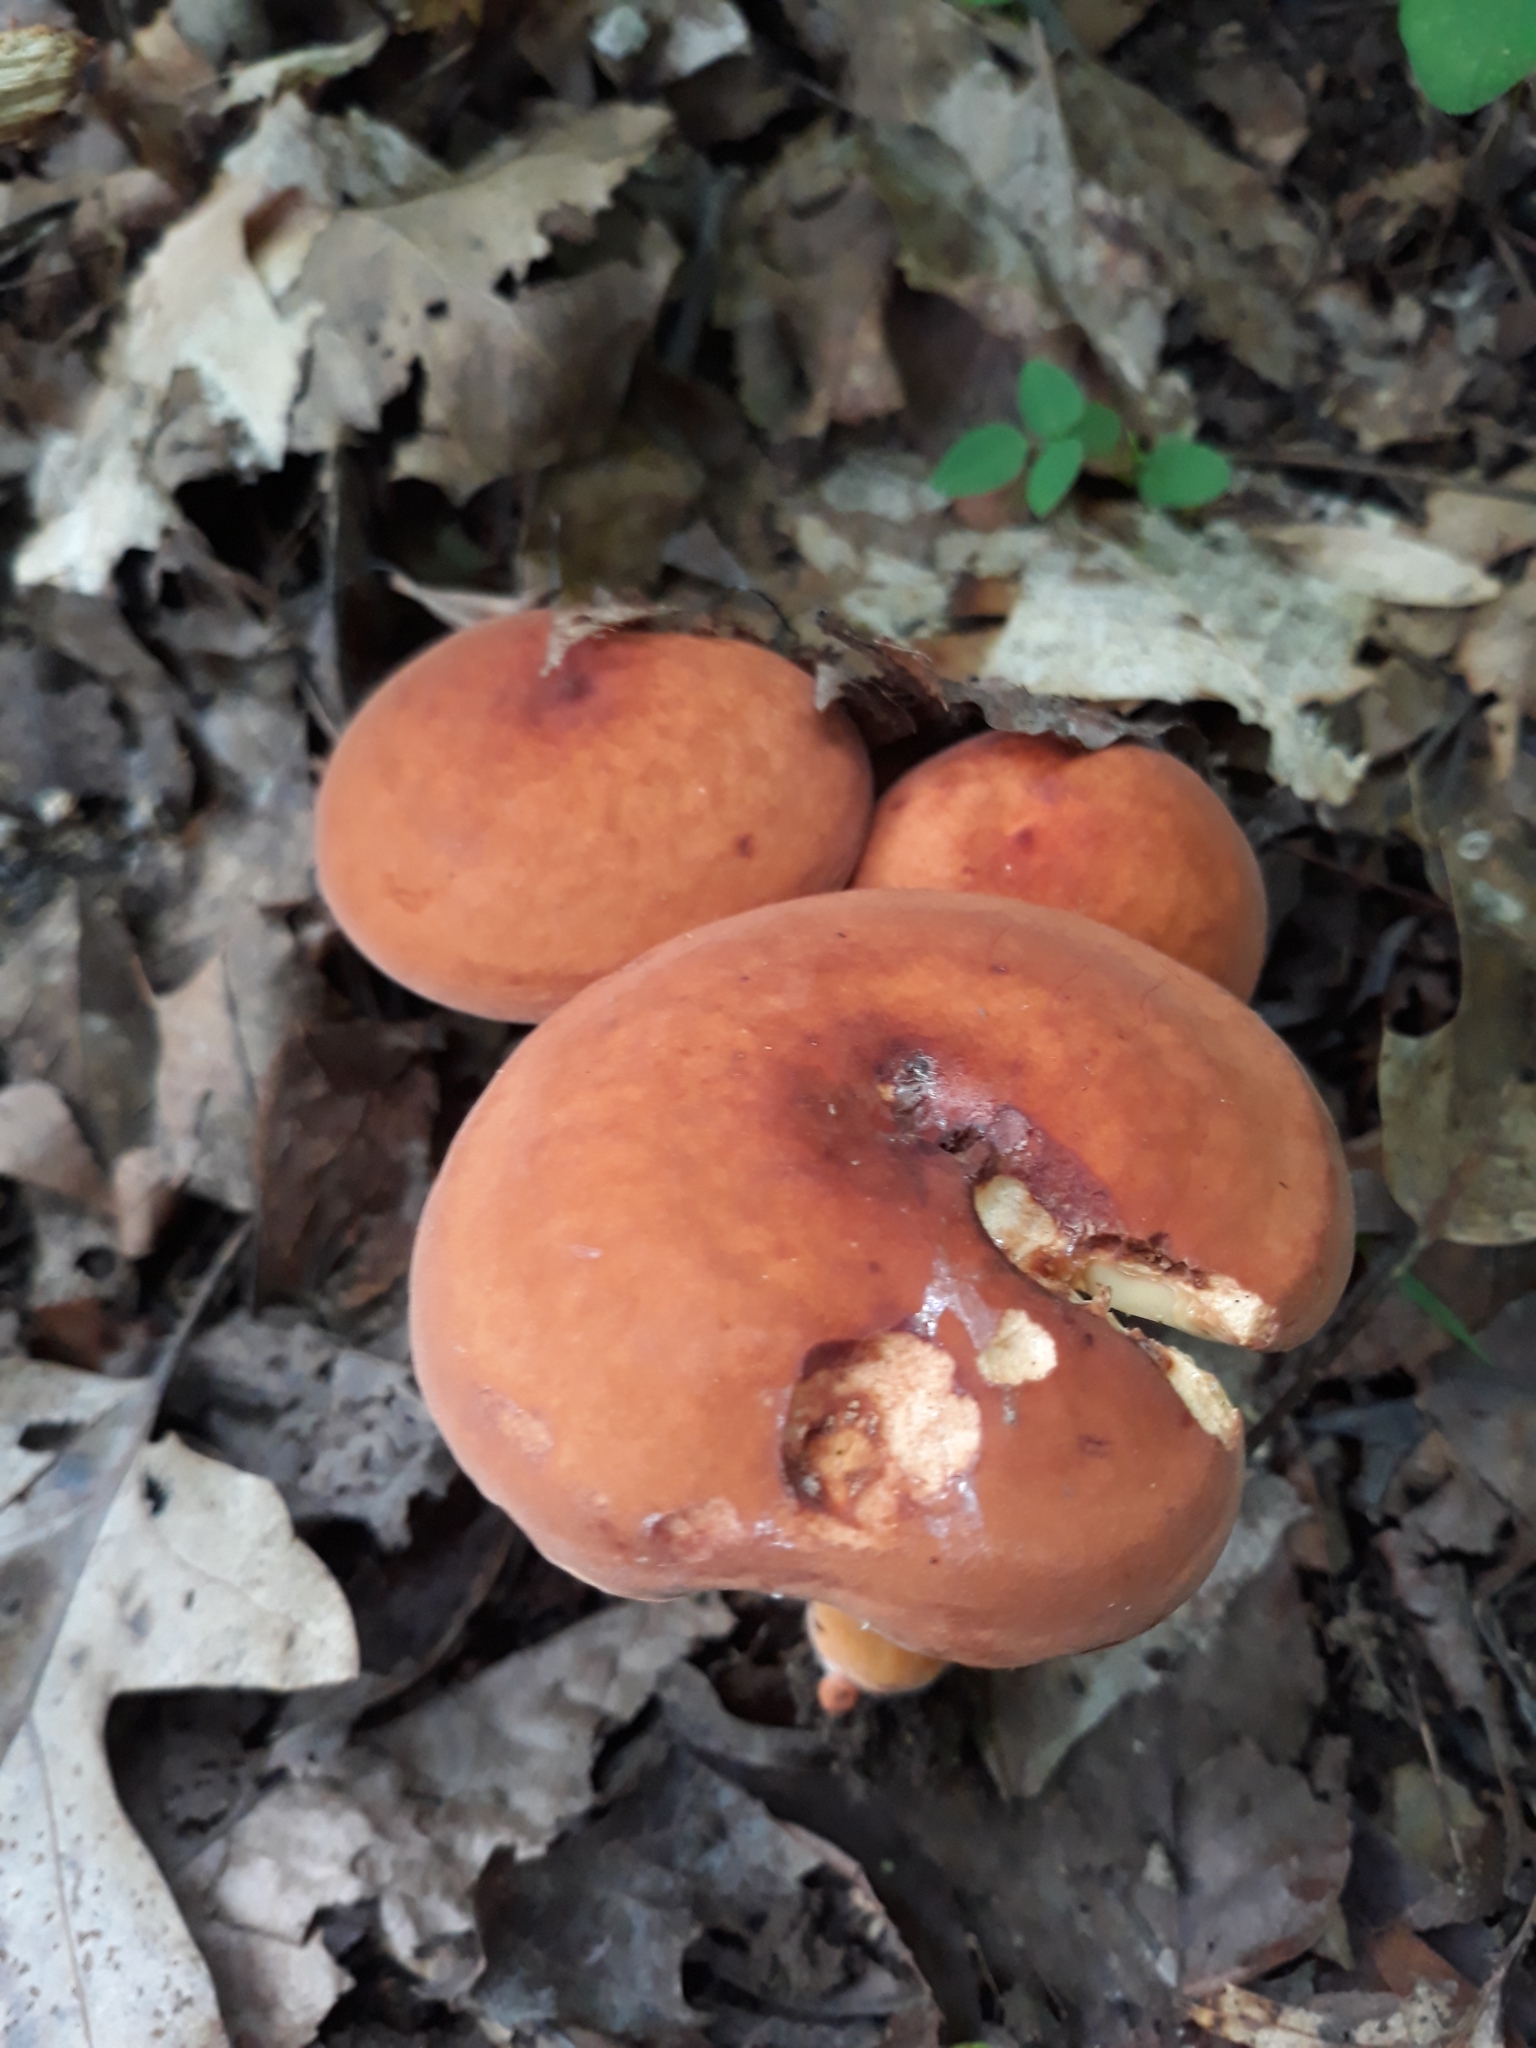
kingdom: Fungi
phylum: Basidiomycota
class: Agaricomycetes
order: Russulales
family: Russulaceae
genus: Lactifluus
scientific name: Lactifluus volemus
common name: Fishy milkcap
